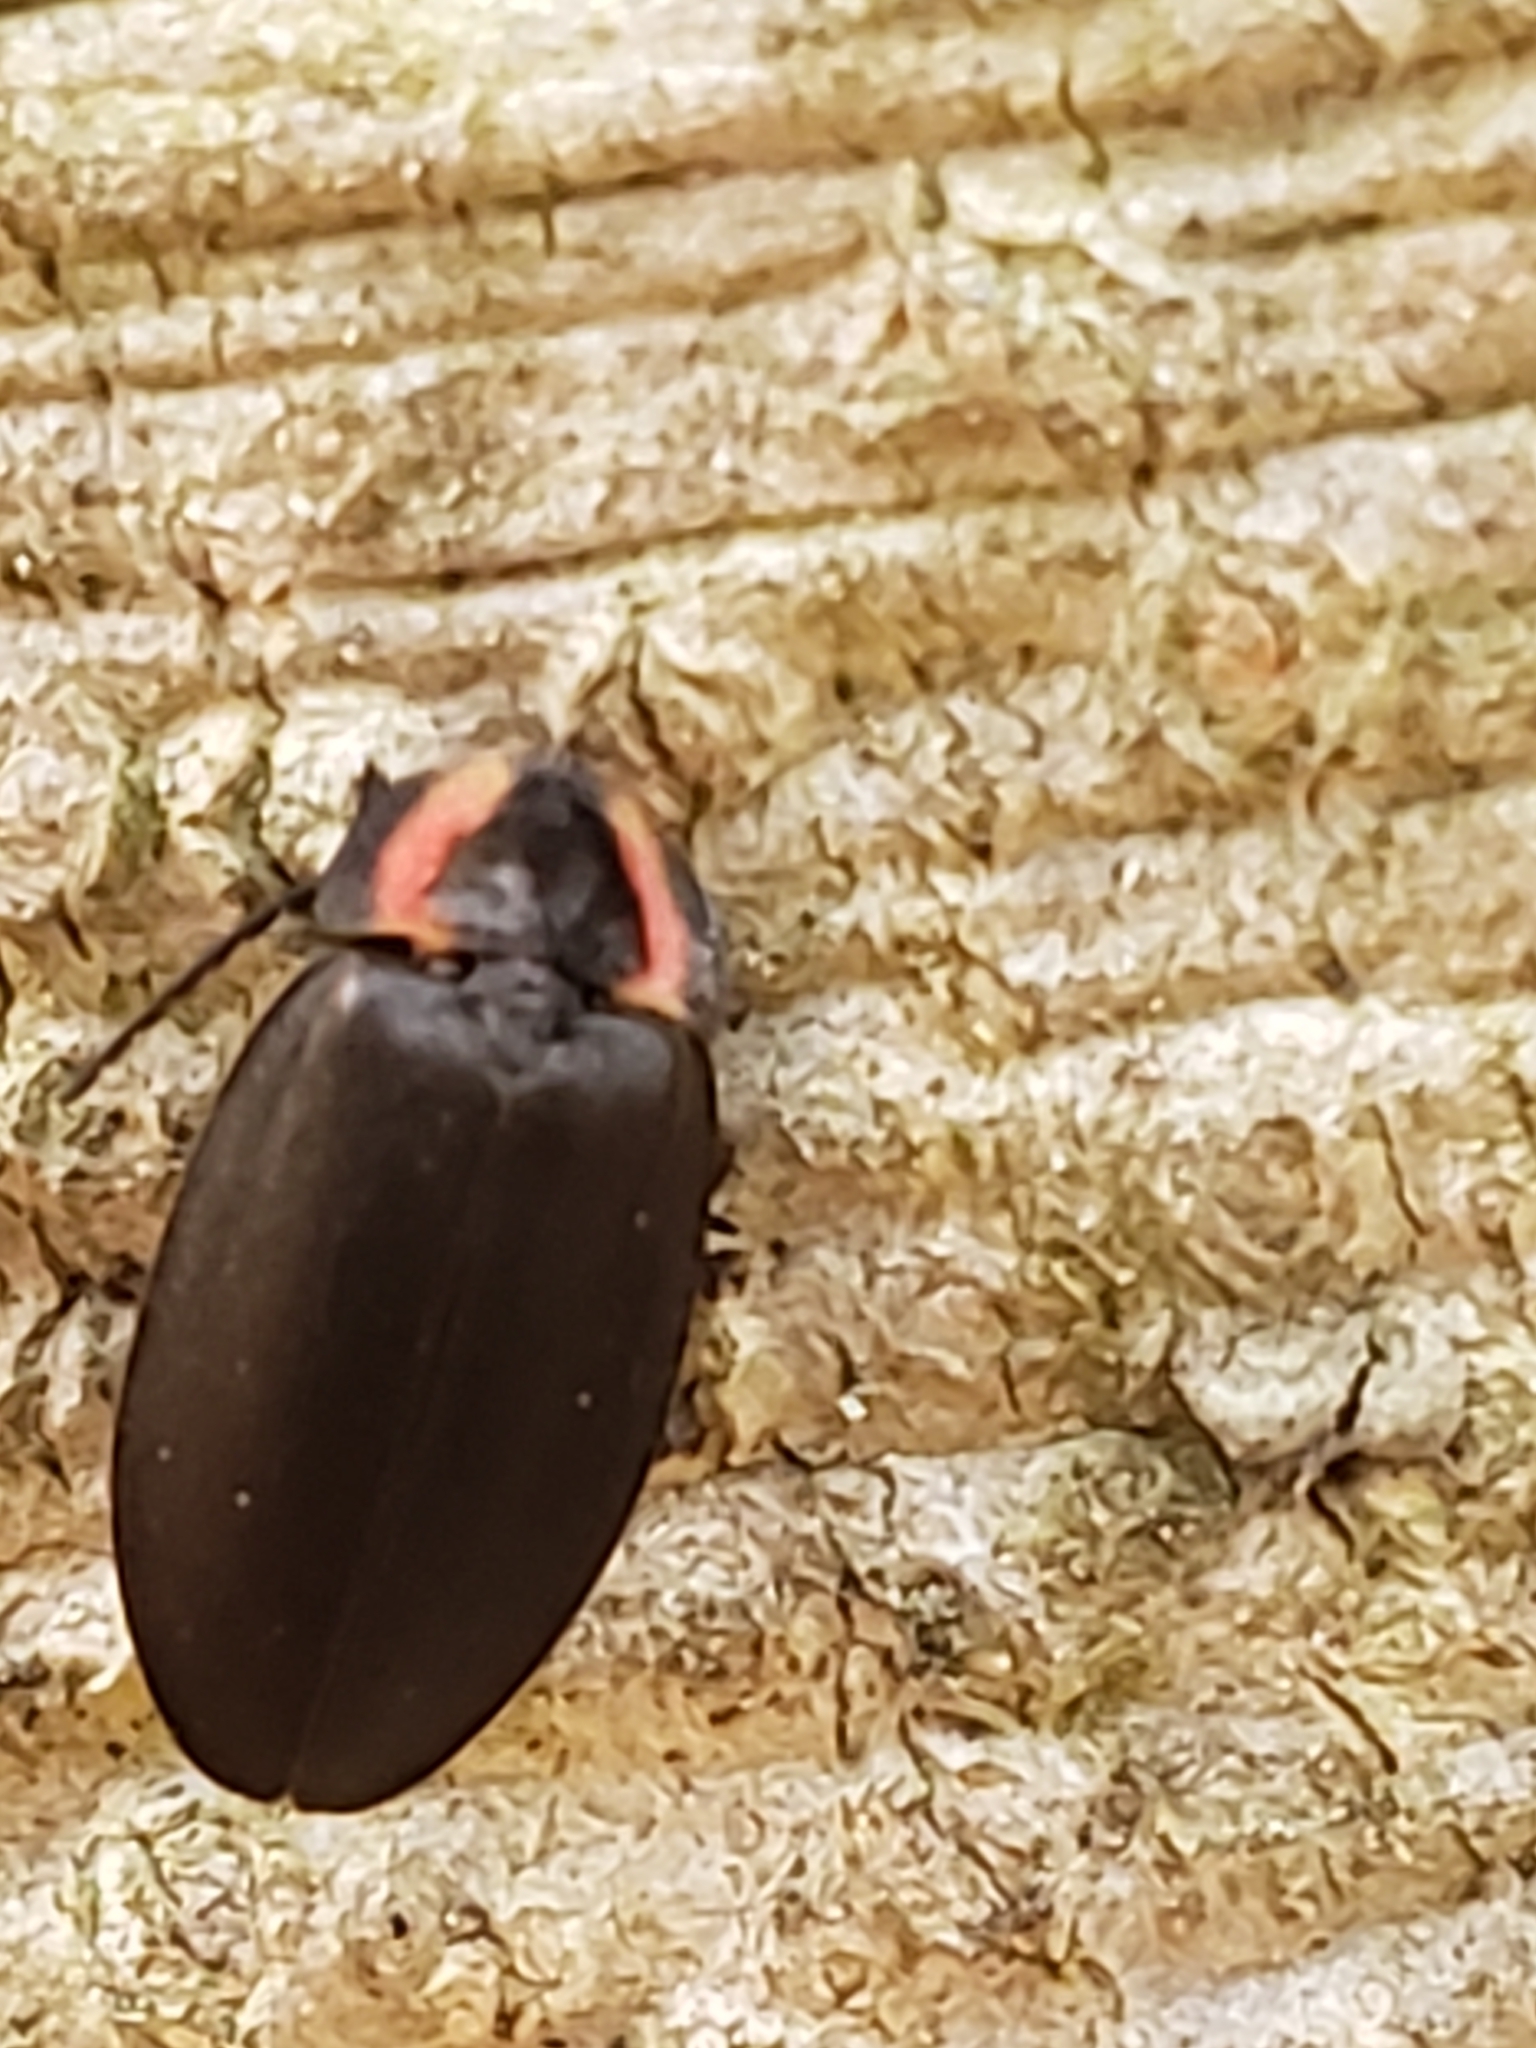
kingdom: Animalia
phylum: Arthropoda
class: Insecta
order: Coleoptera
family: Lampyridae
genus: Photinus
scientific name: Photinus corrusca
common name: Winter firefly
